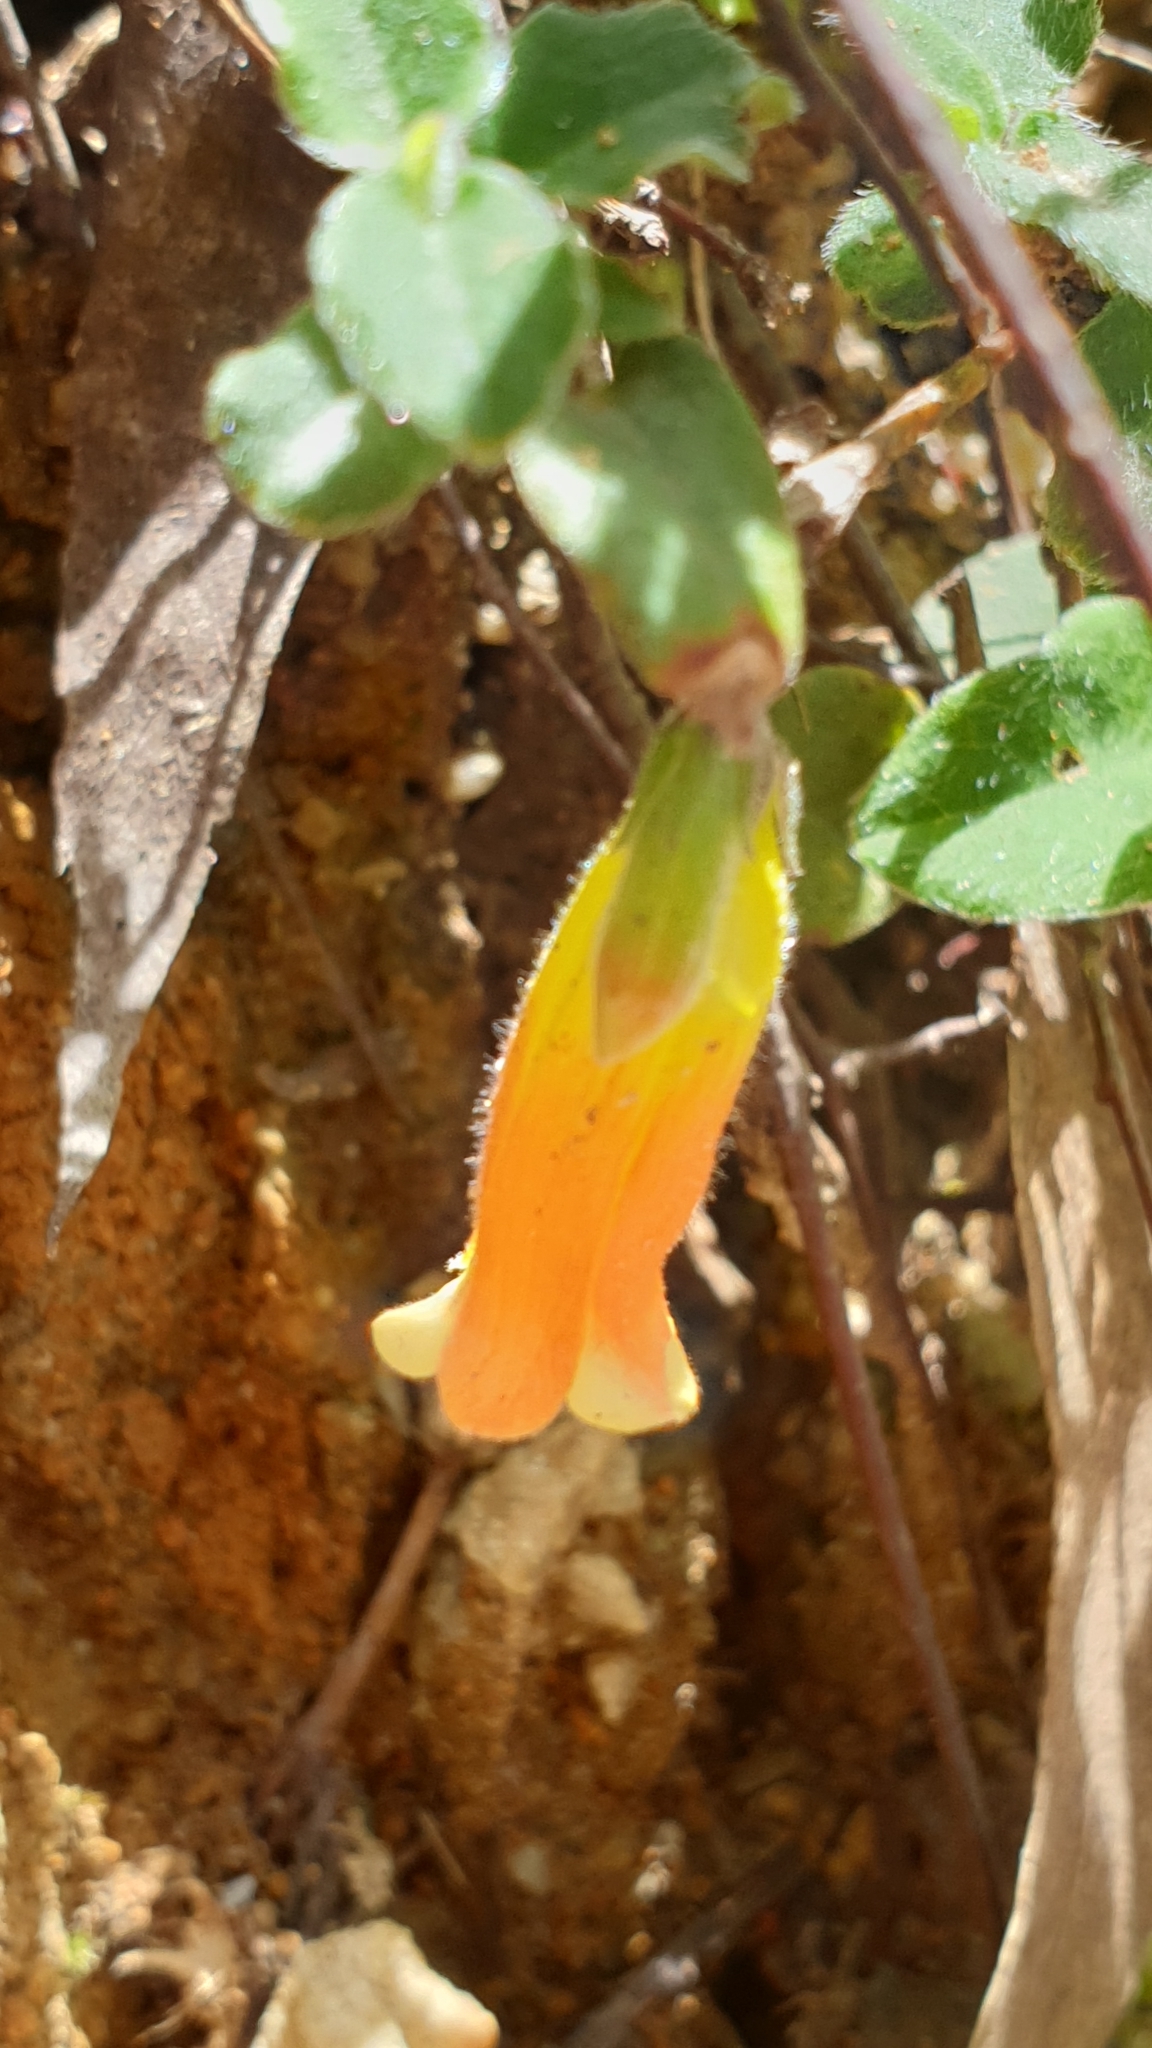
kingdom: Plantae
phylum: Tracheophyta
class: Magnoliopsida
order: Apiales
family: Pittosporaceae
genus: Marianthus
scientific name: Marianthus bignoniaceus
